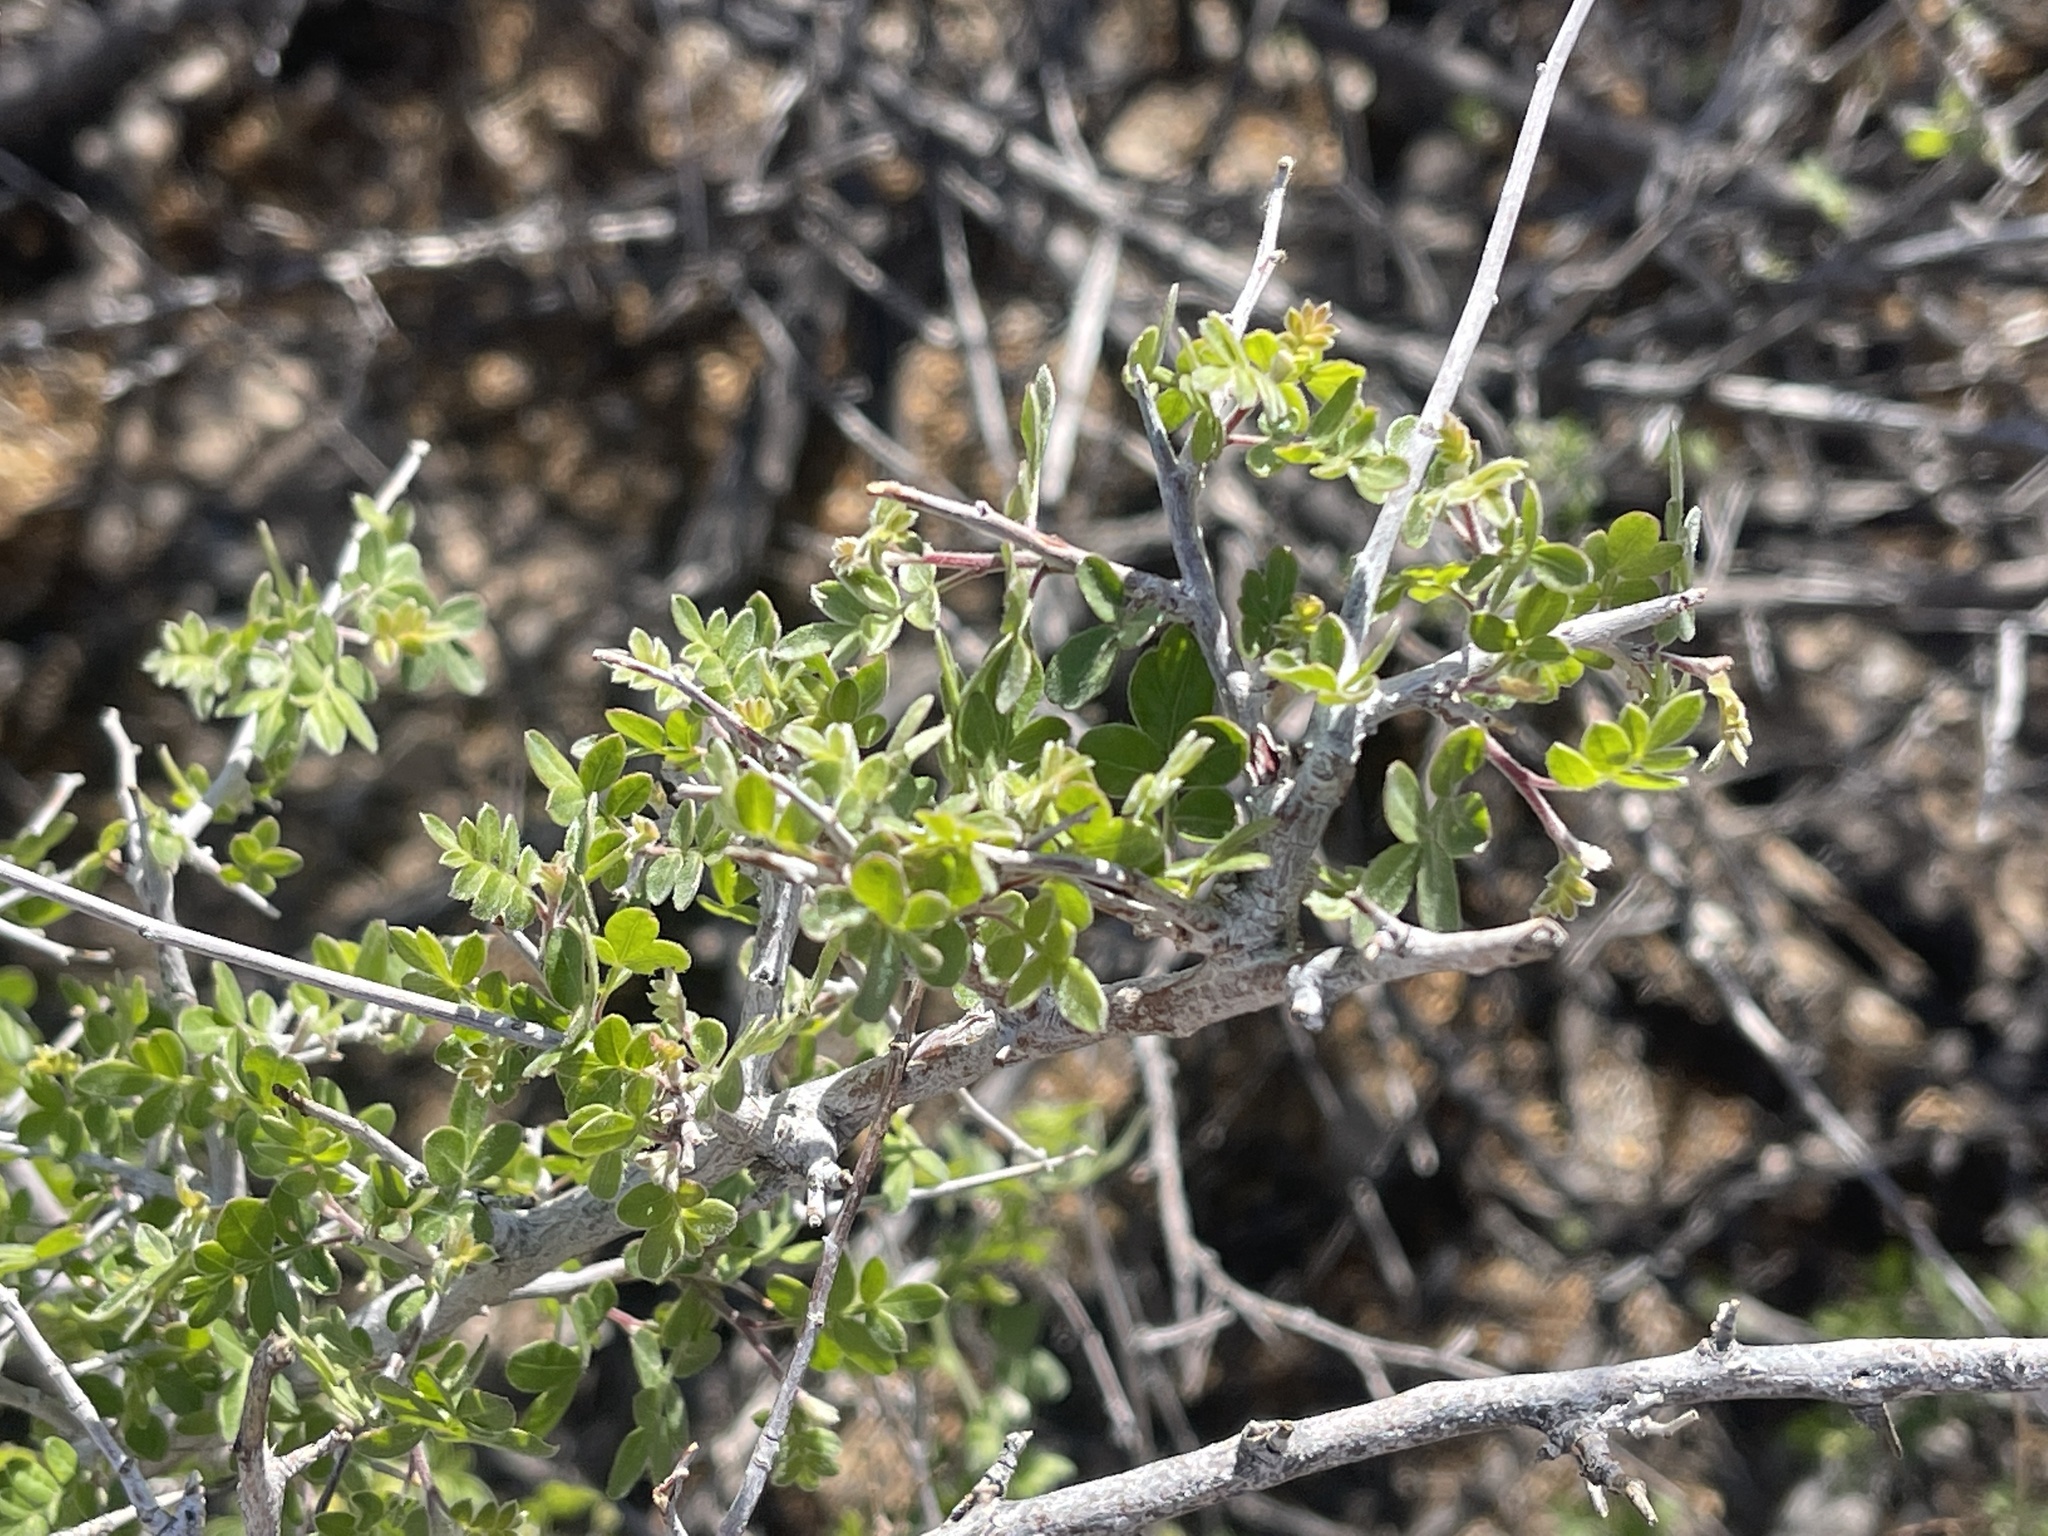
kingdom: Plantae
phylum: Tracheophyta
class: Magnoliopsida
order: Sapindales
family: Anacardiaceae
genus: Rhus
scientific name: Rhus microphylla
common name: Desert sumac
